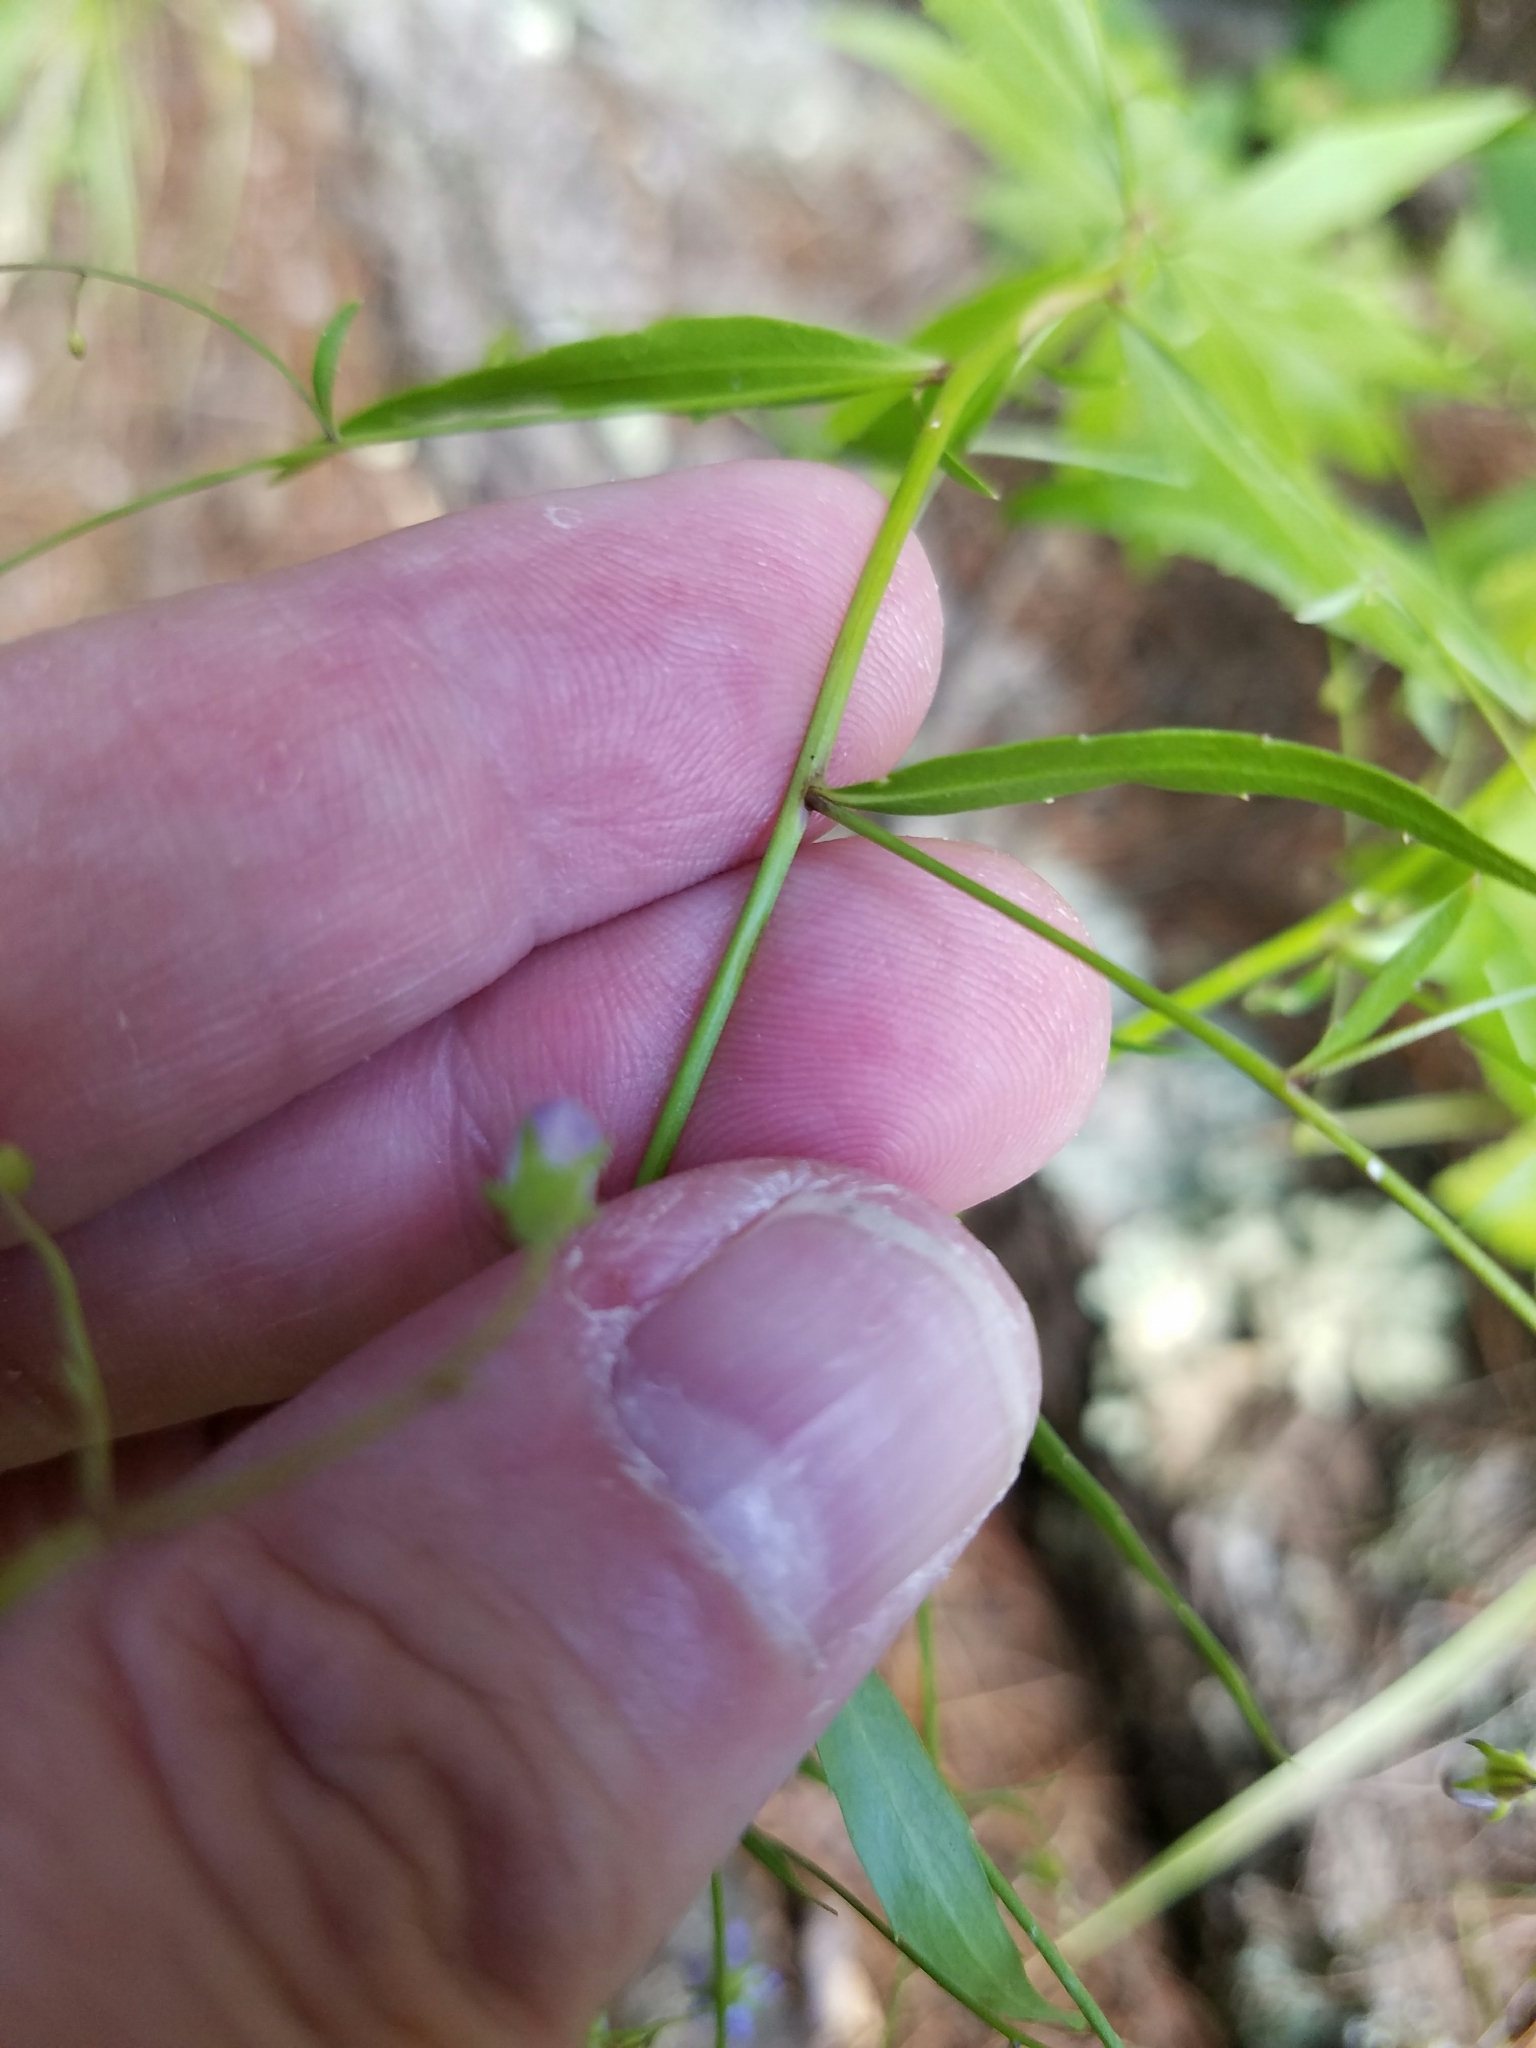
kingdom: Plantae
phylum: Tracheophyta
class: Magnoliopsida
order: Asterales
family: Campanulaceae
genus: Campanula
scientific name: Campanula divaricata
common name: Appalachian bellflower
